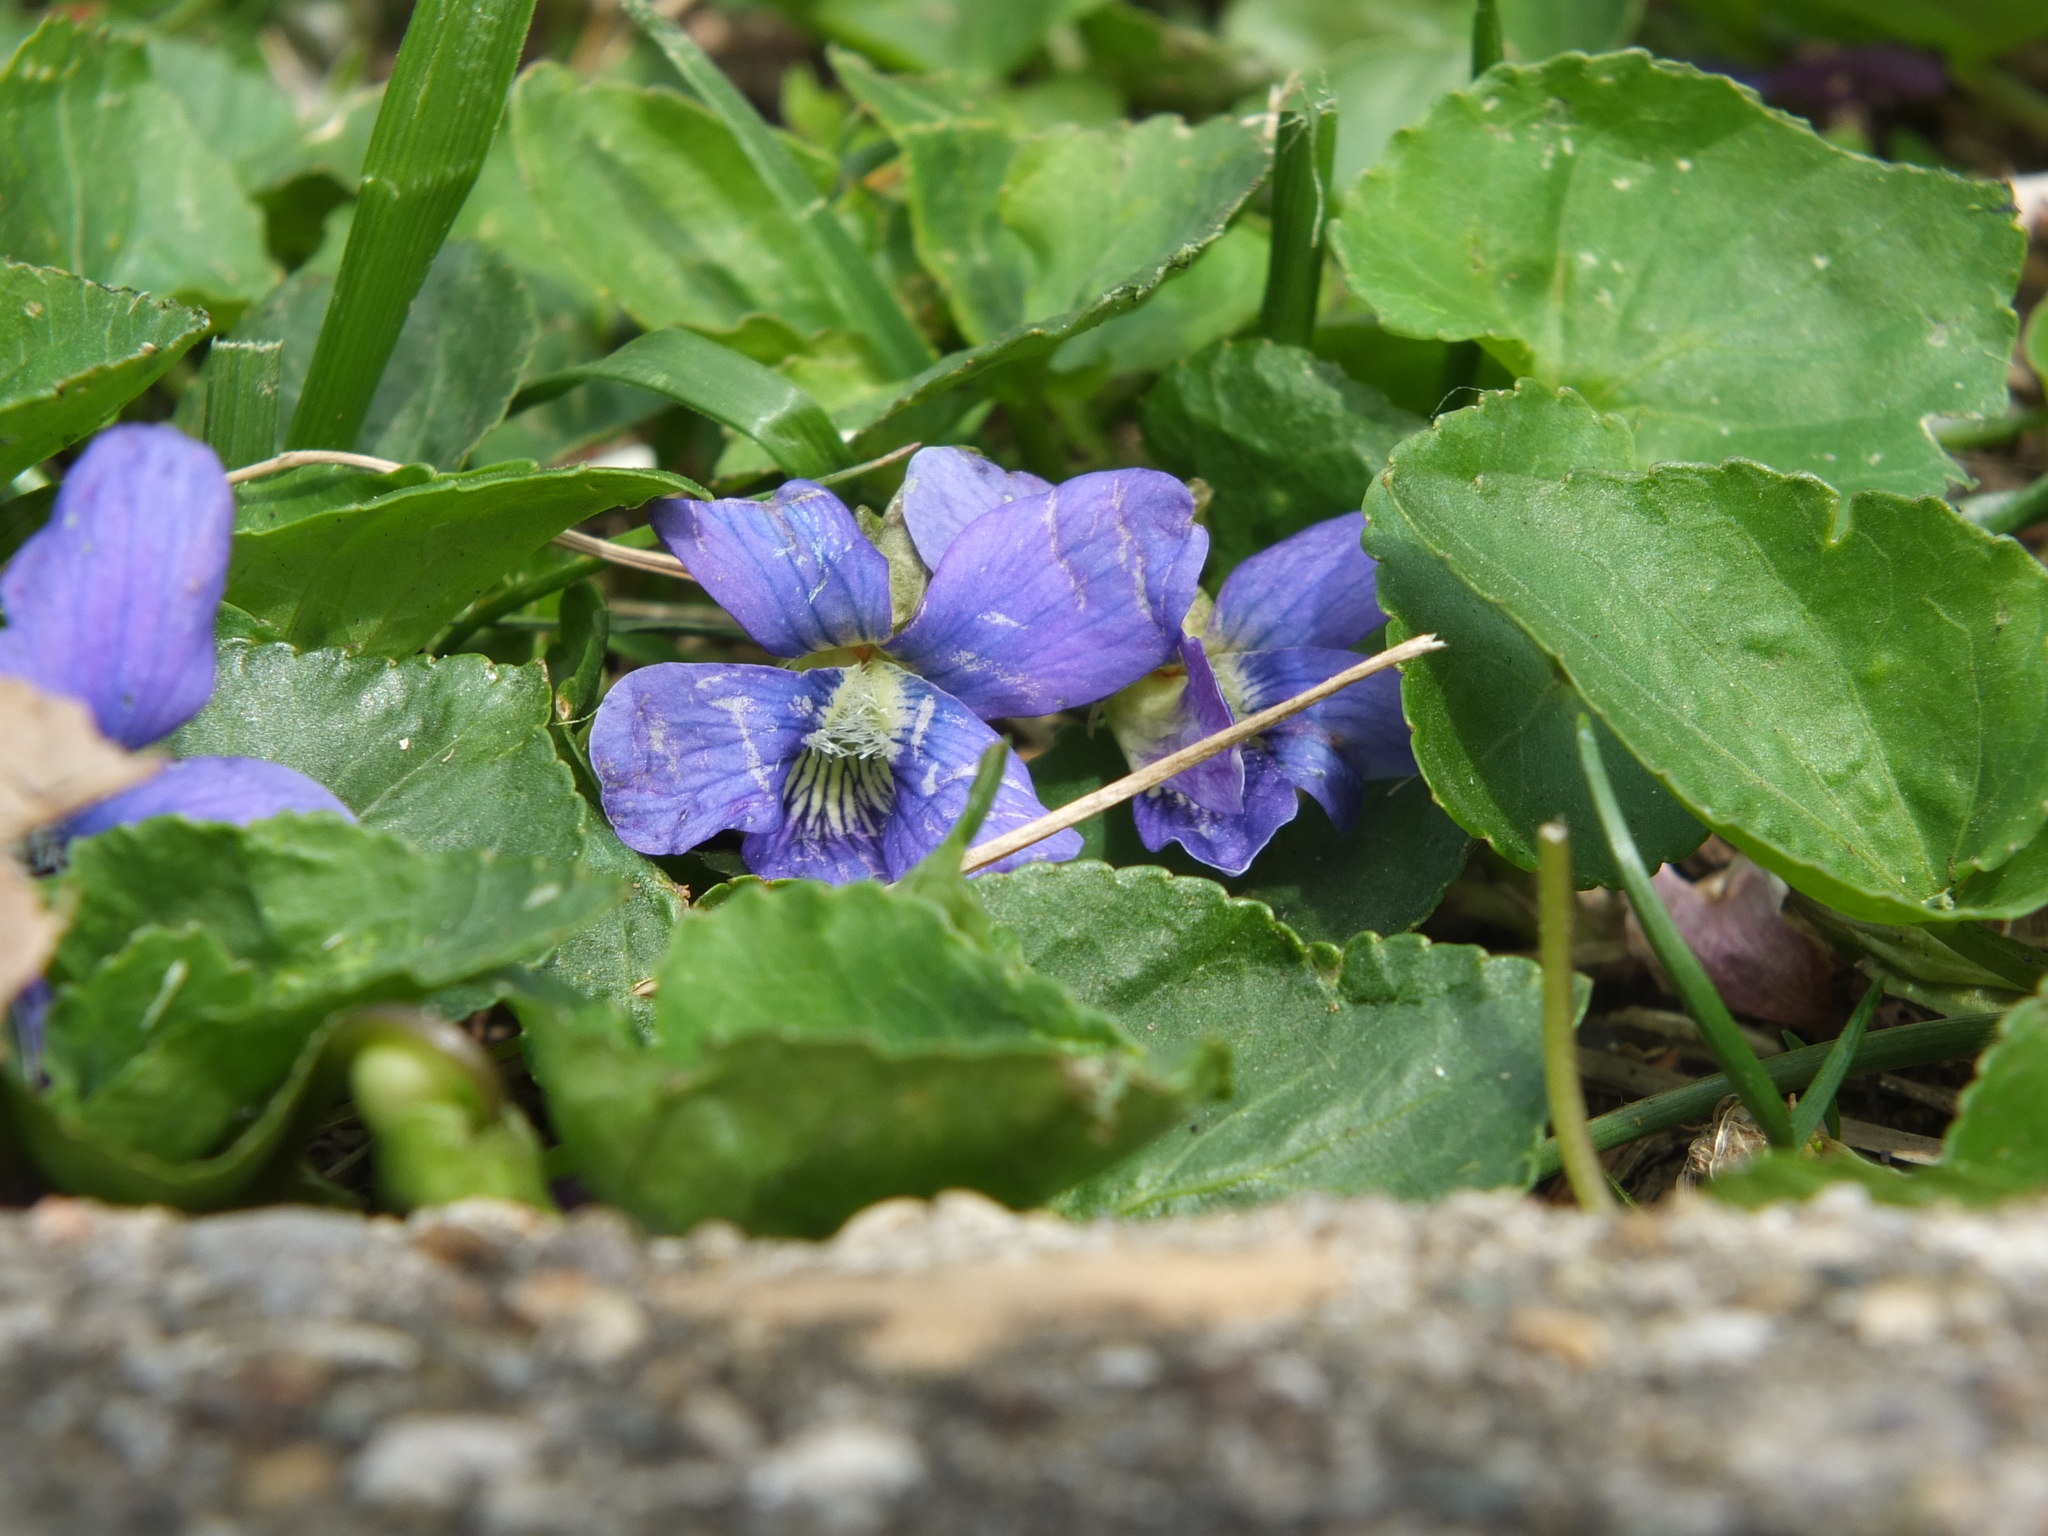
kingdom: Plantae
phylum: Tracheophyta
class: Magnoliopsida
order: Malpighiales
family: Violaceae
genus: Viola
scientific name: Viola sororia
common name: Dooryard violet
